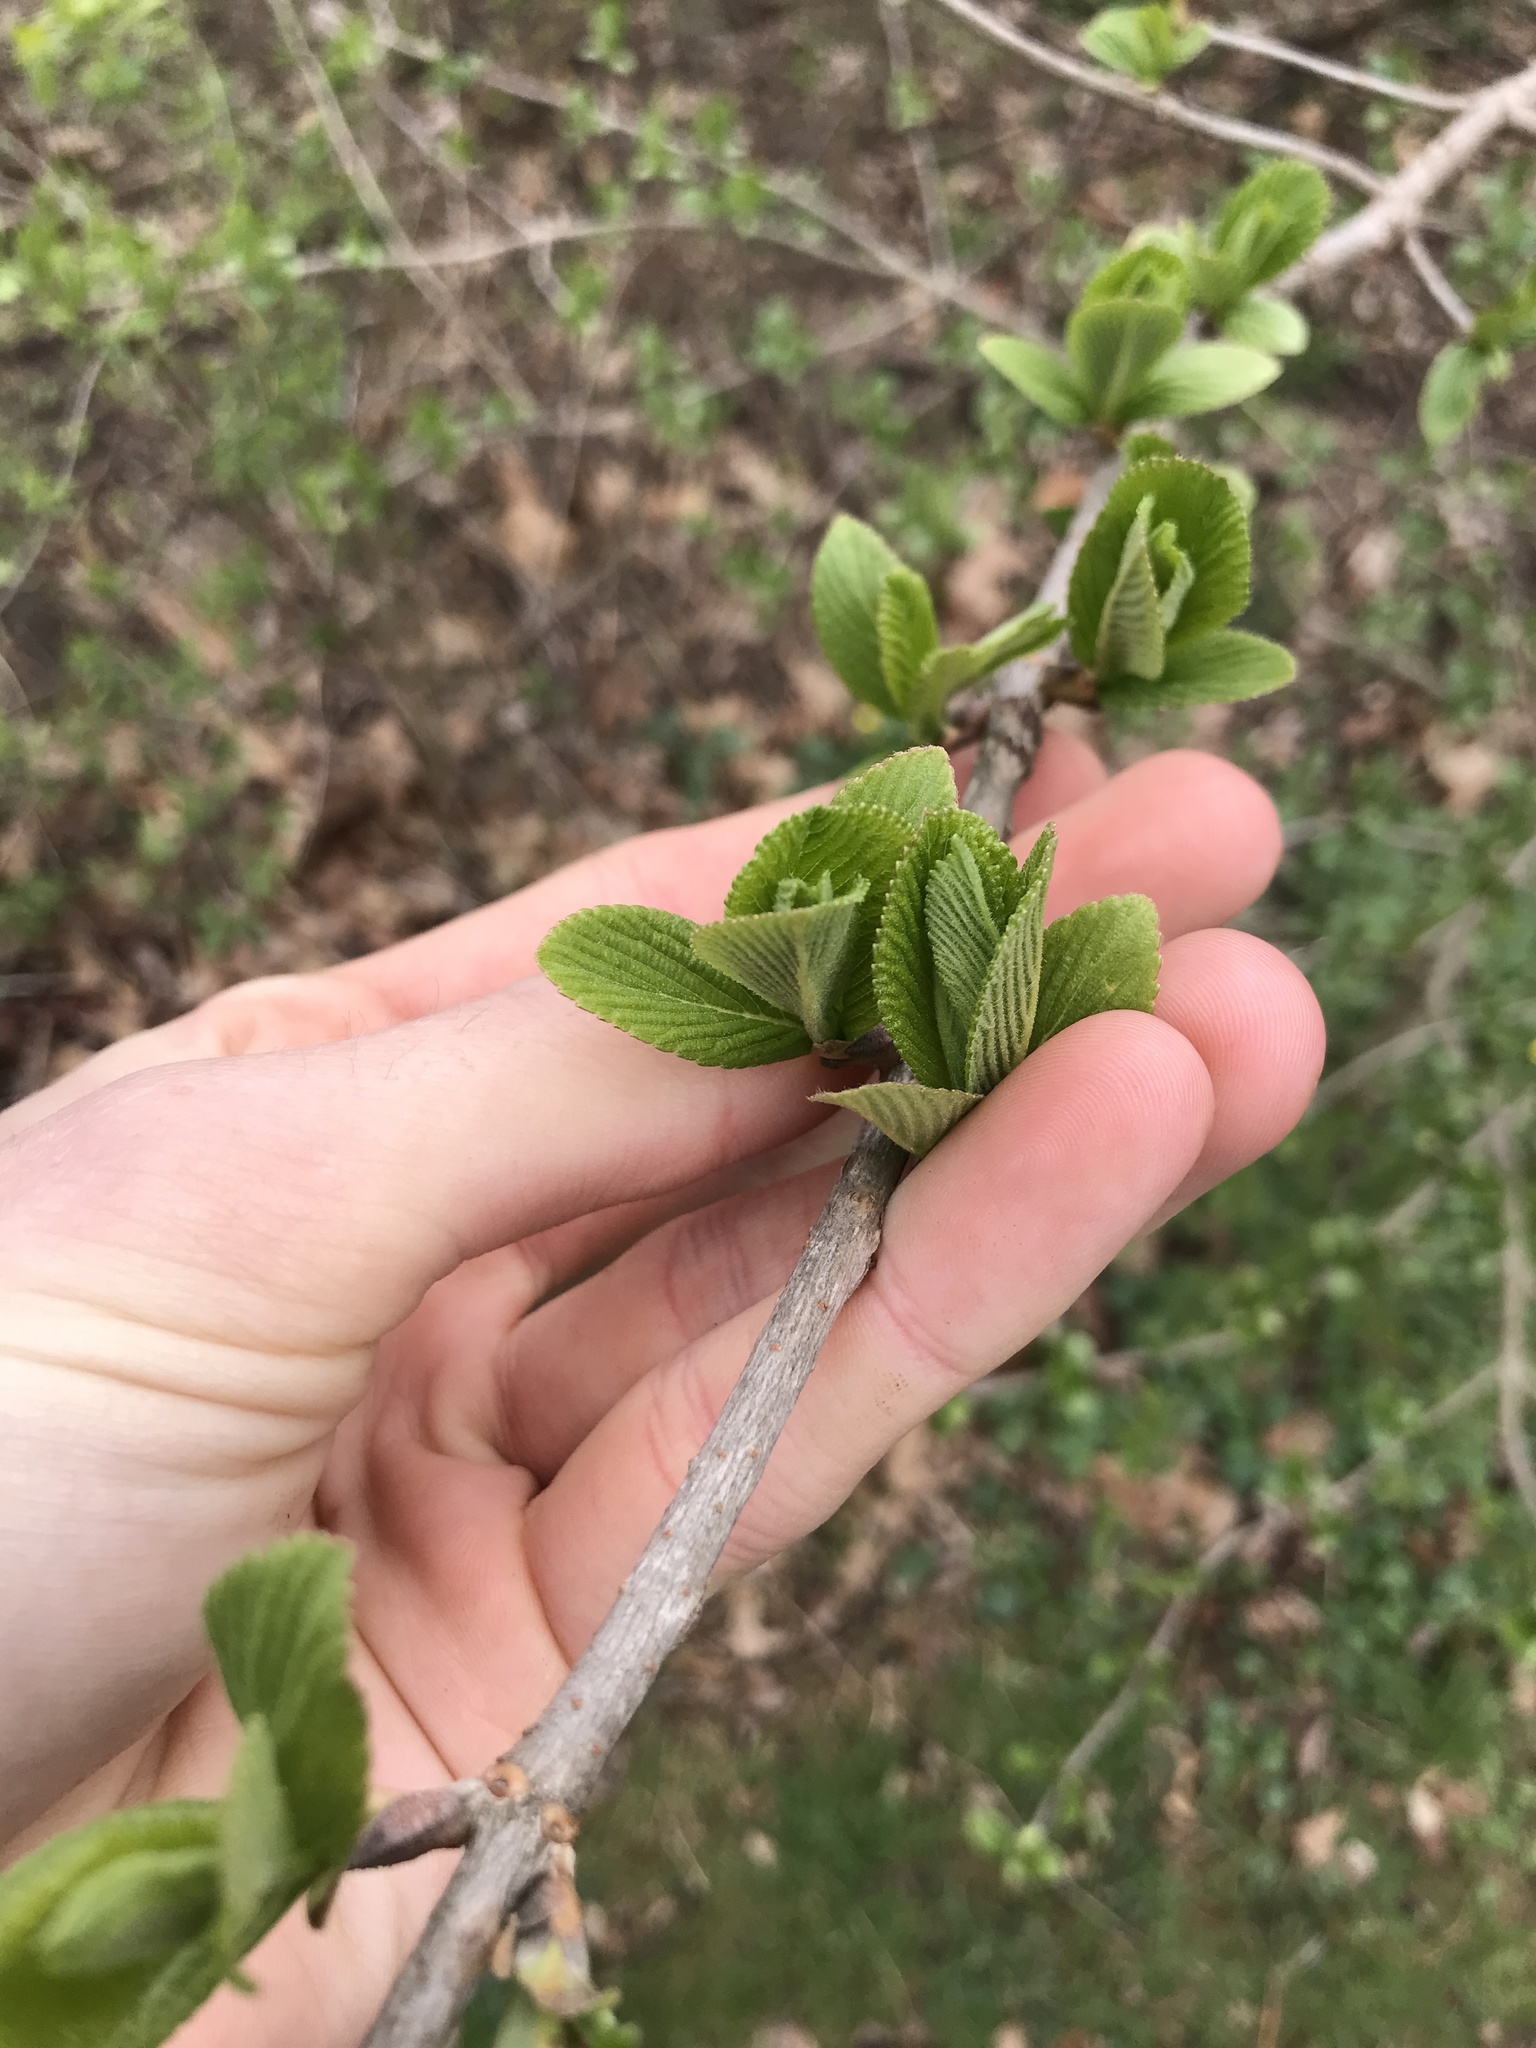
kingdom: Plantae
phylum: Tracheophyta
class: Magnoliopsida
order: Dipsacales
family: Viburnaceae
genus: Viburnum
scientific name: Viburnum sieboldii
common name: Siebold's arrowwood
